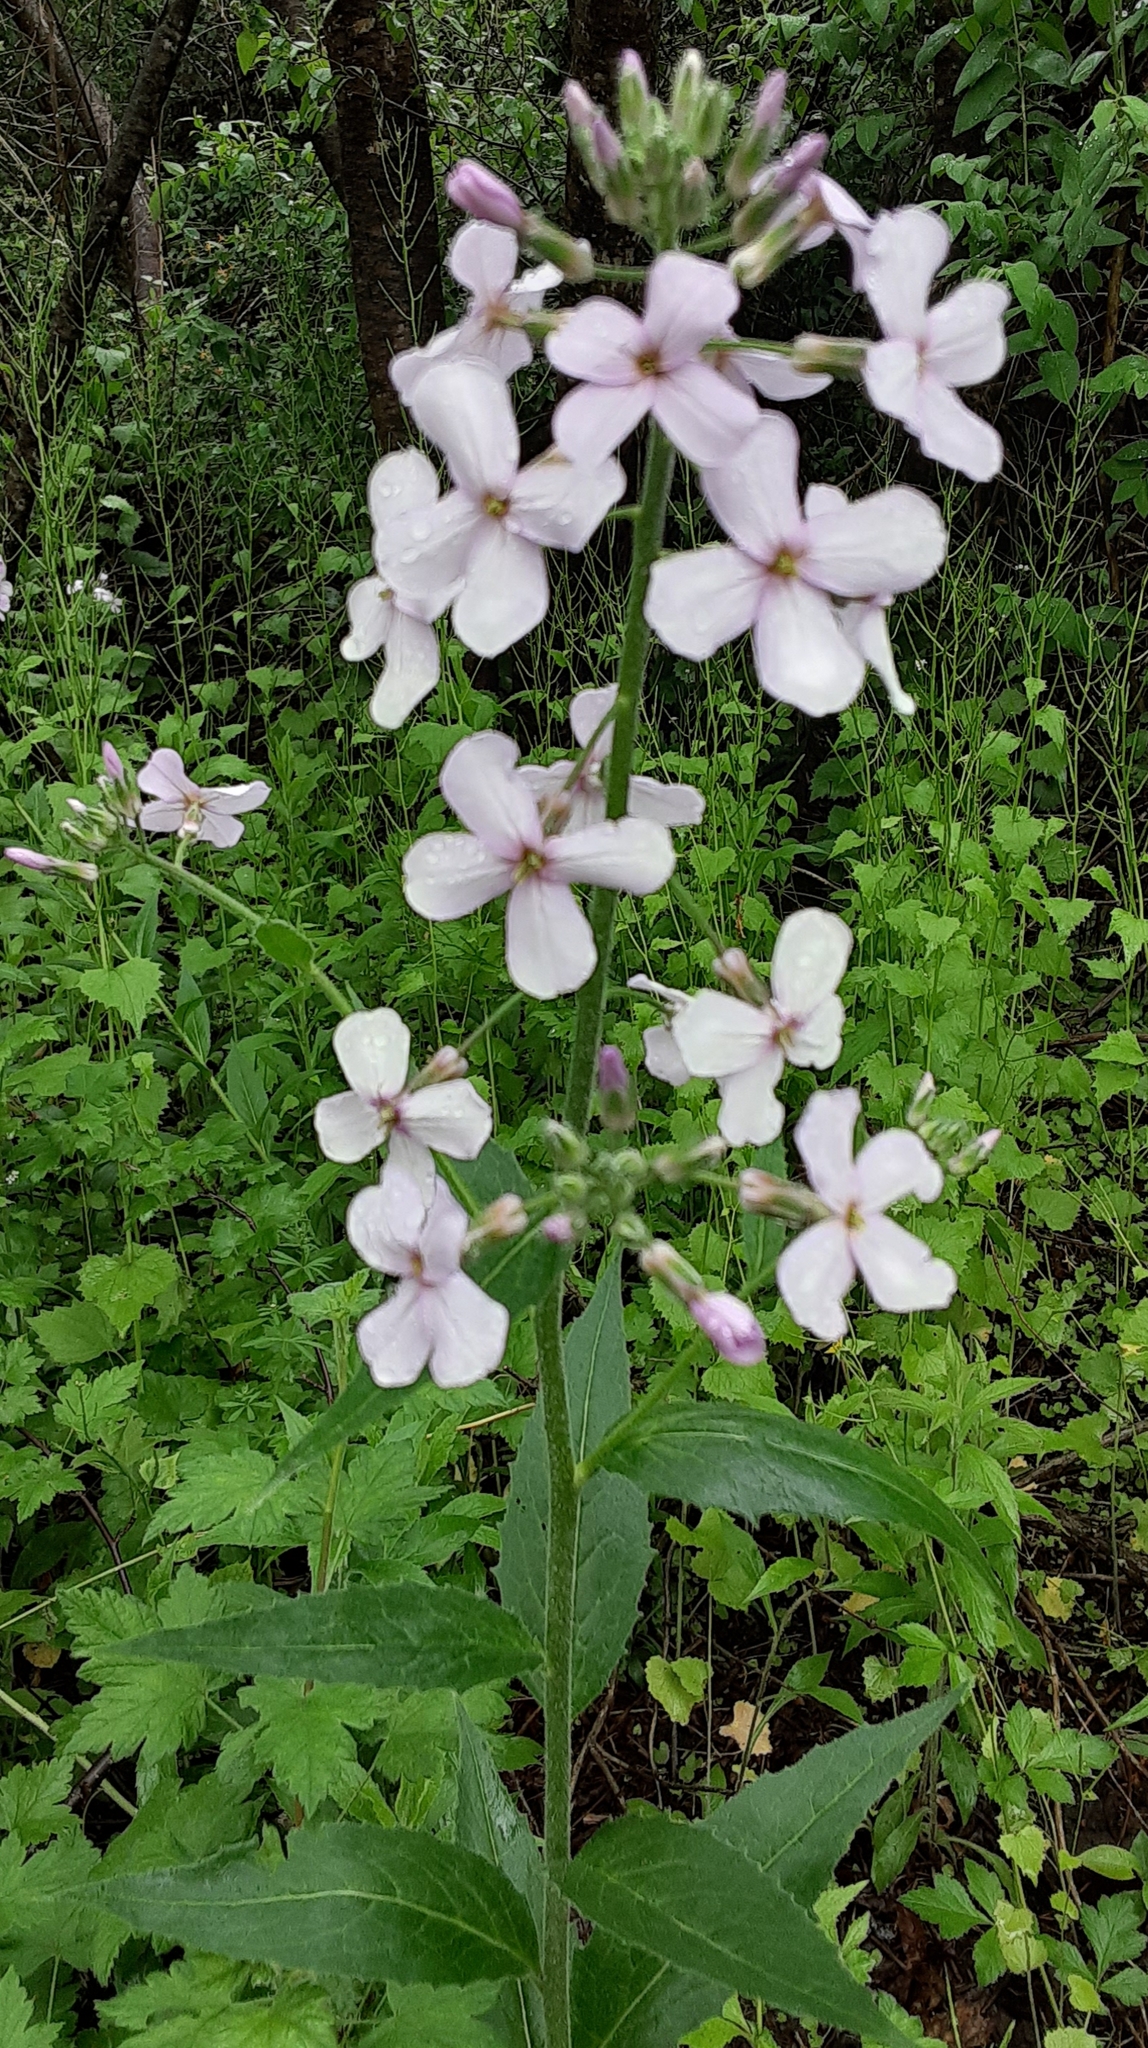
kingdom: Plantae
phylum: Tracheophyta
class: Magnoliopsida
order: Brassicales
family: Brassicaceae
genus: Hesperis
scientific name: Hesperis matronalis
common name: Dame's-violet
